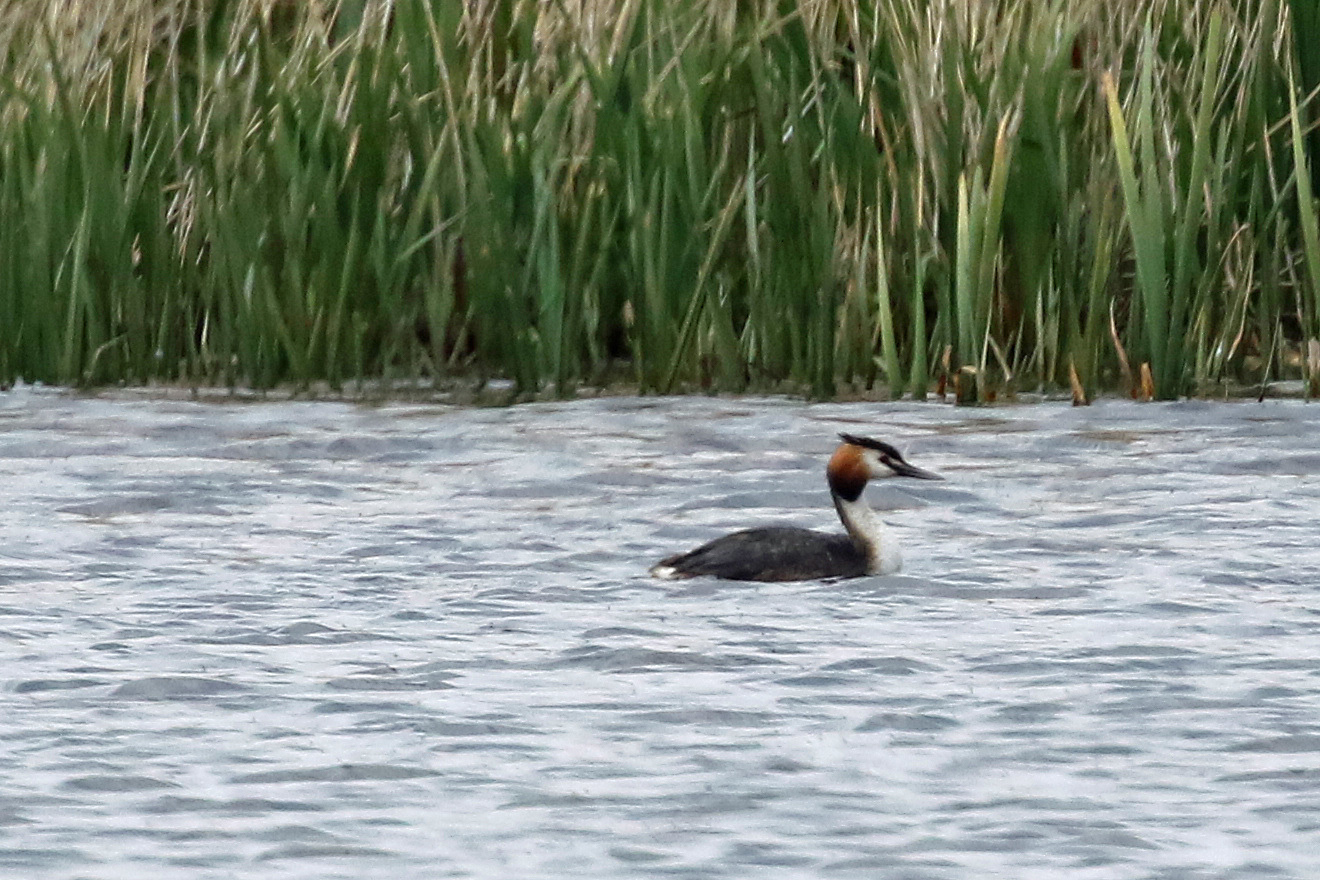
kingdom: Animalia
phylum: Chordata
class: Aves
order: Podicipediformes
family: Podicipedidae
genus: Podiceps
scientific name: Podiceps cristatus
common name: Great crested grebe
